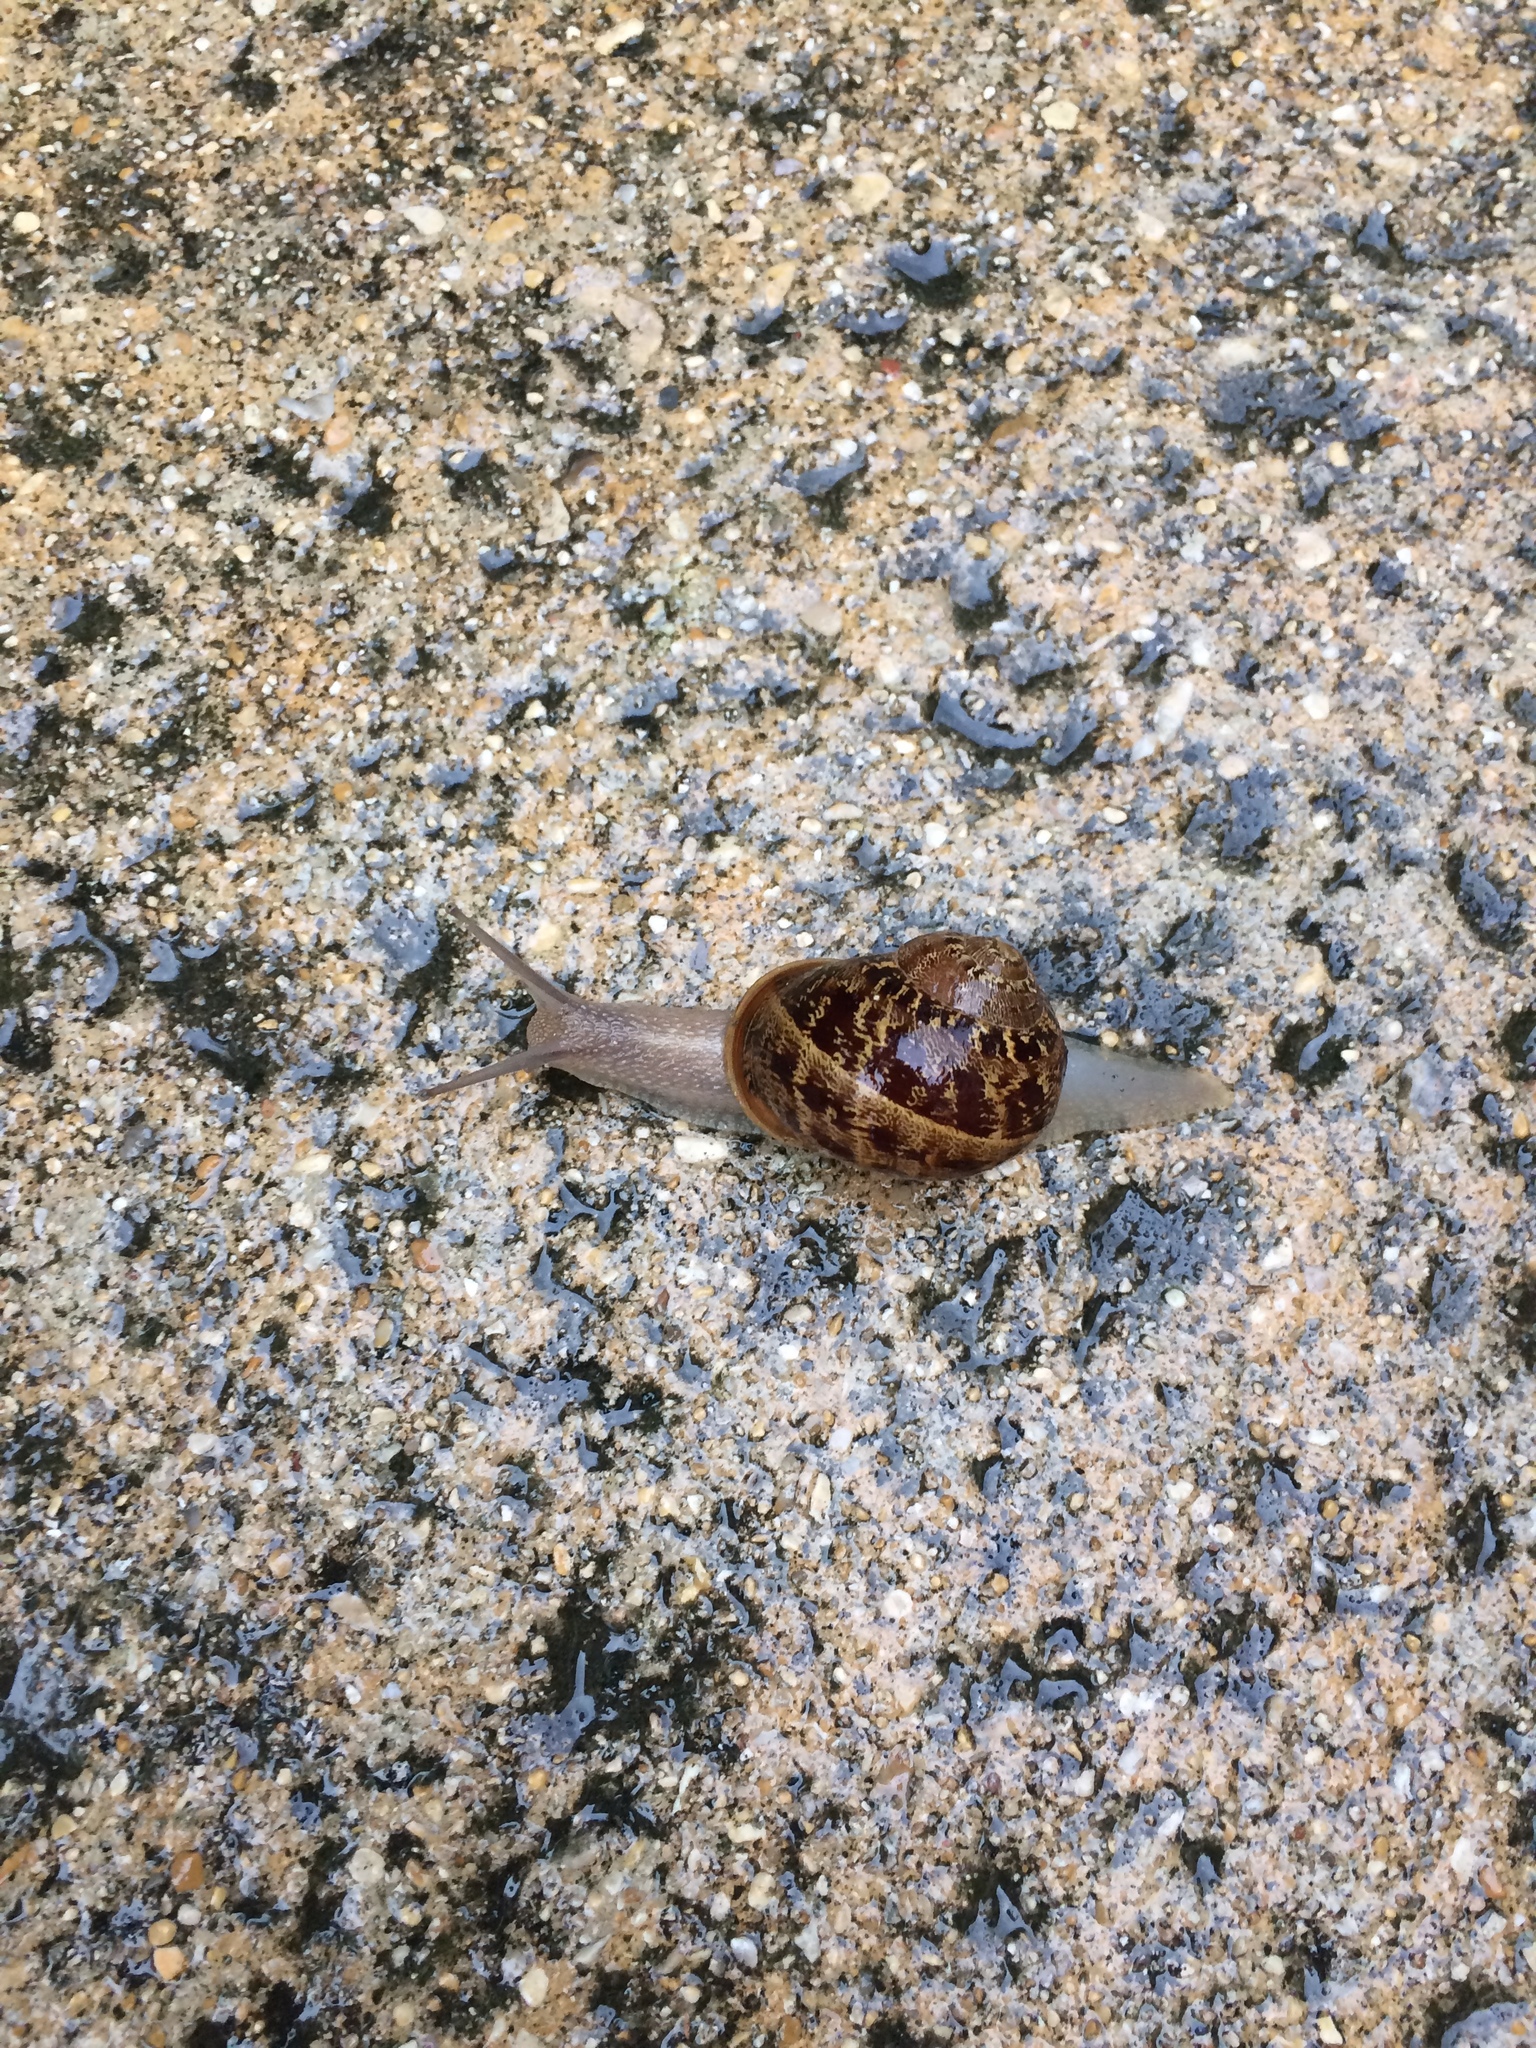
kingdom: Animalia
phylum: Mollusca
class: Gastropoda
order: Stylommatophora
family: Helicidae
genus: Cornu
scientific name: Cornu aspersum
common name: Brown garden snail
